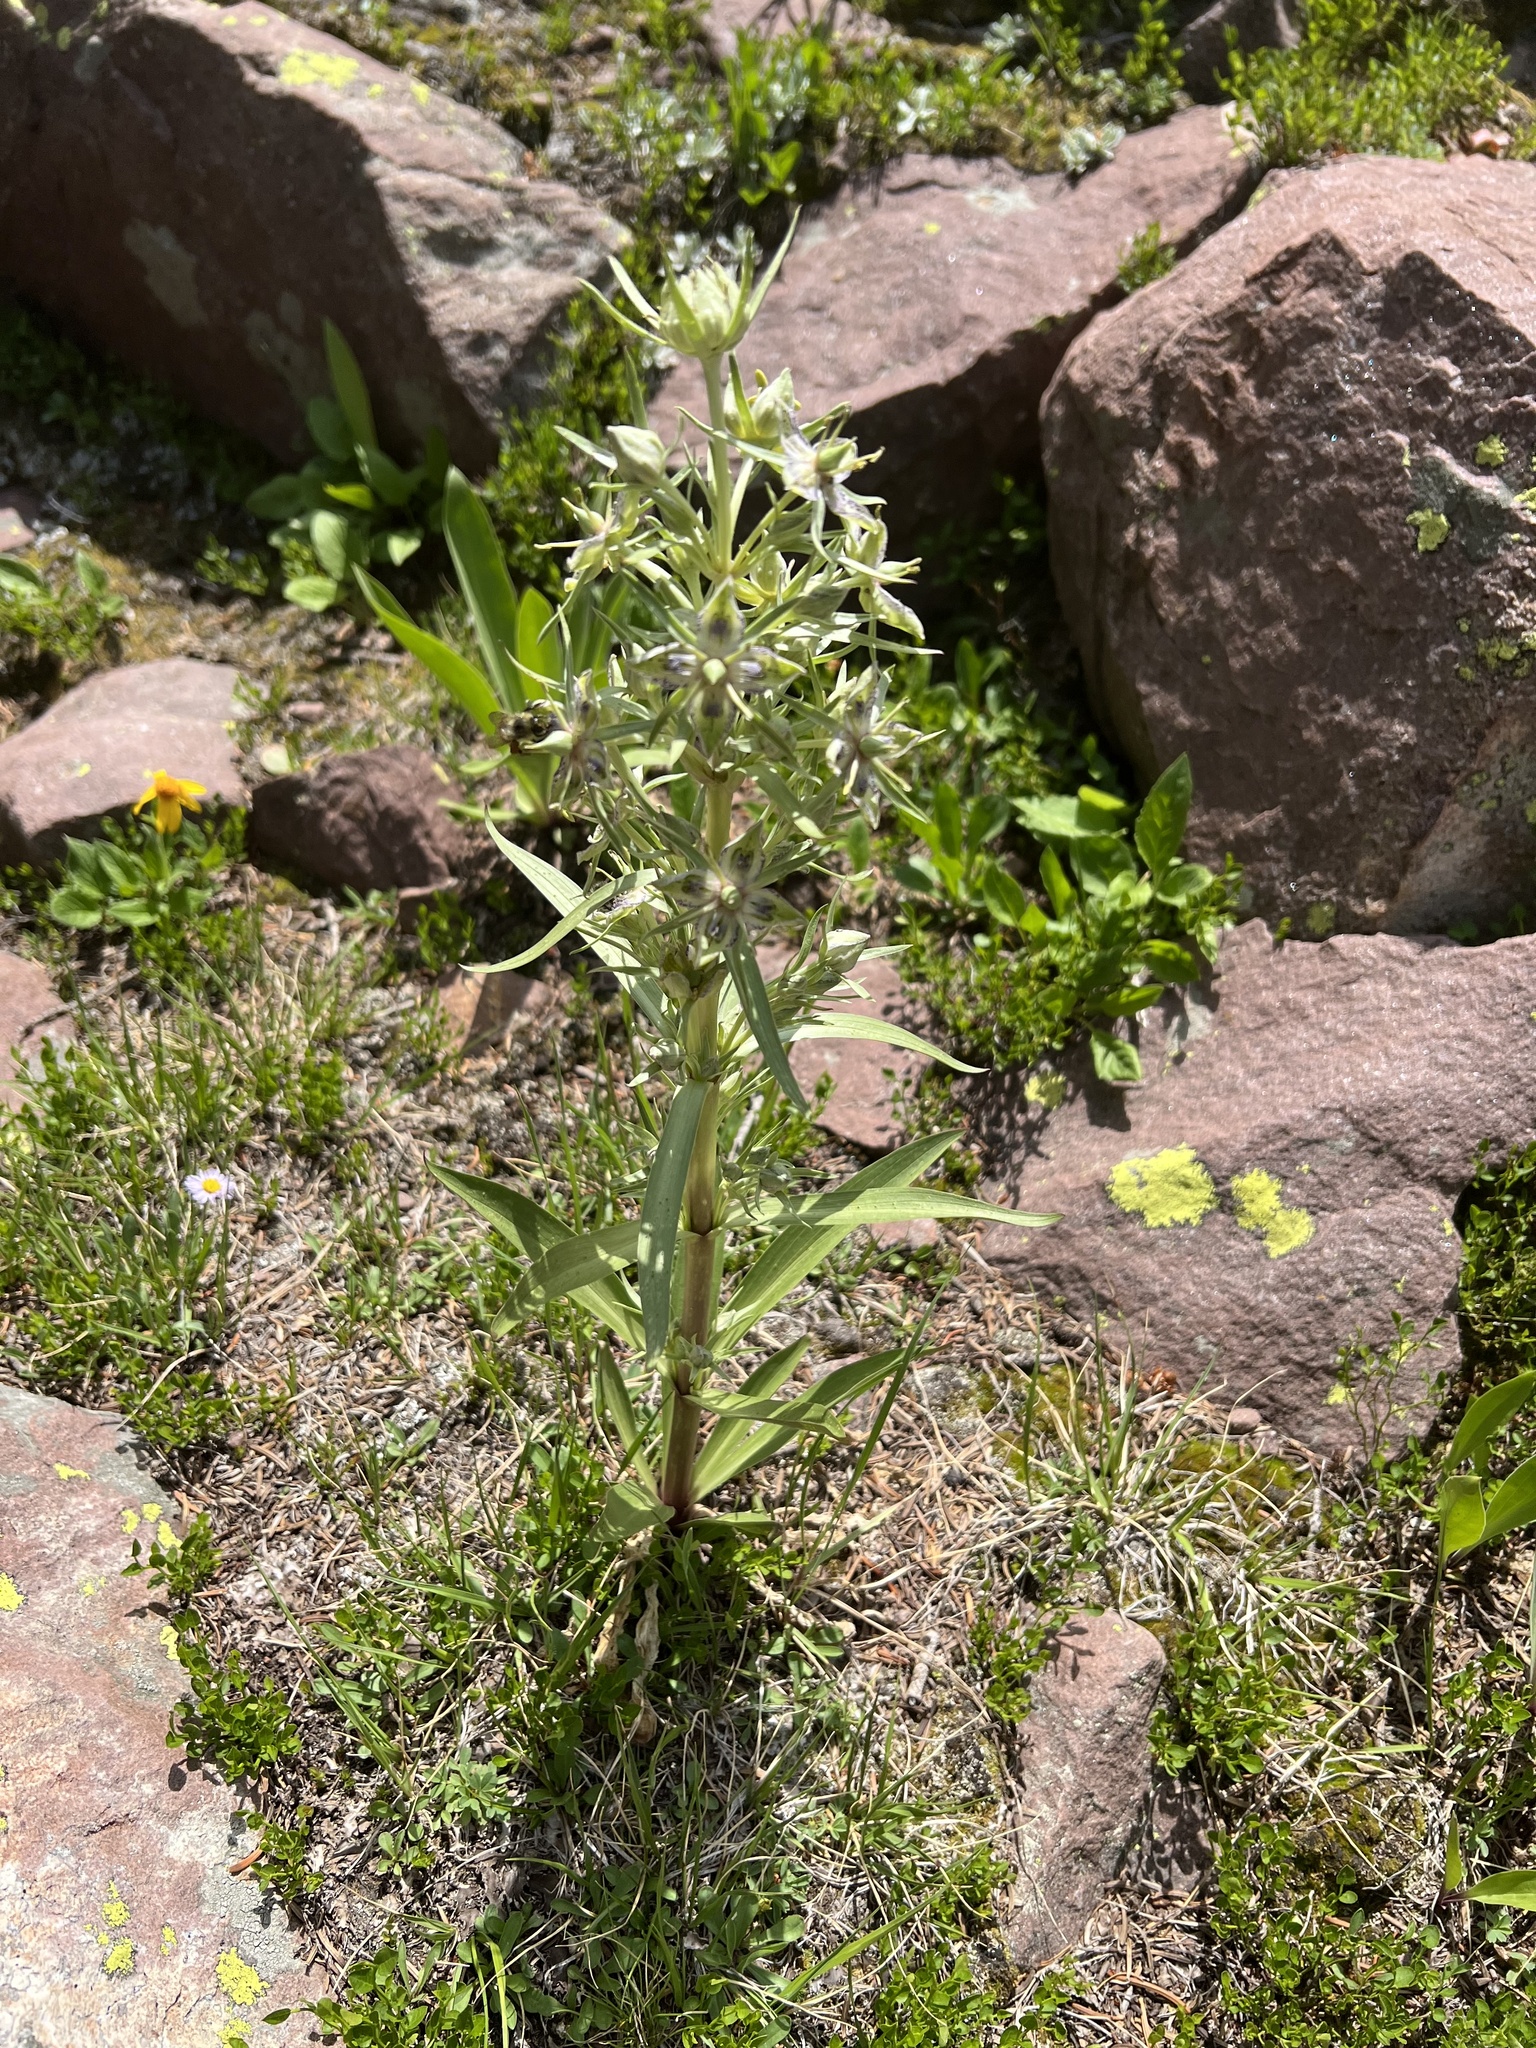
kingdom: Plantae
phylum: Tracheophyta
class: Magnoliopsida
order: Gentianales
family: Gentianaceae
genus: Frasera
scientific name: Frasera speciosa
